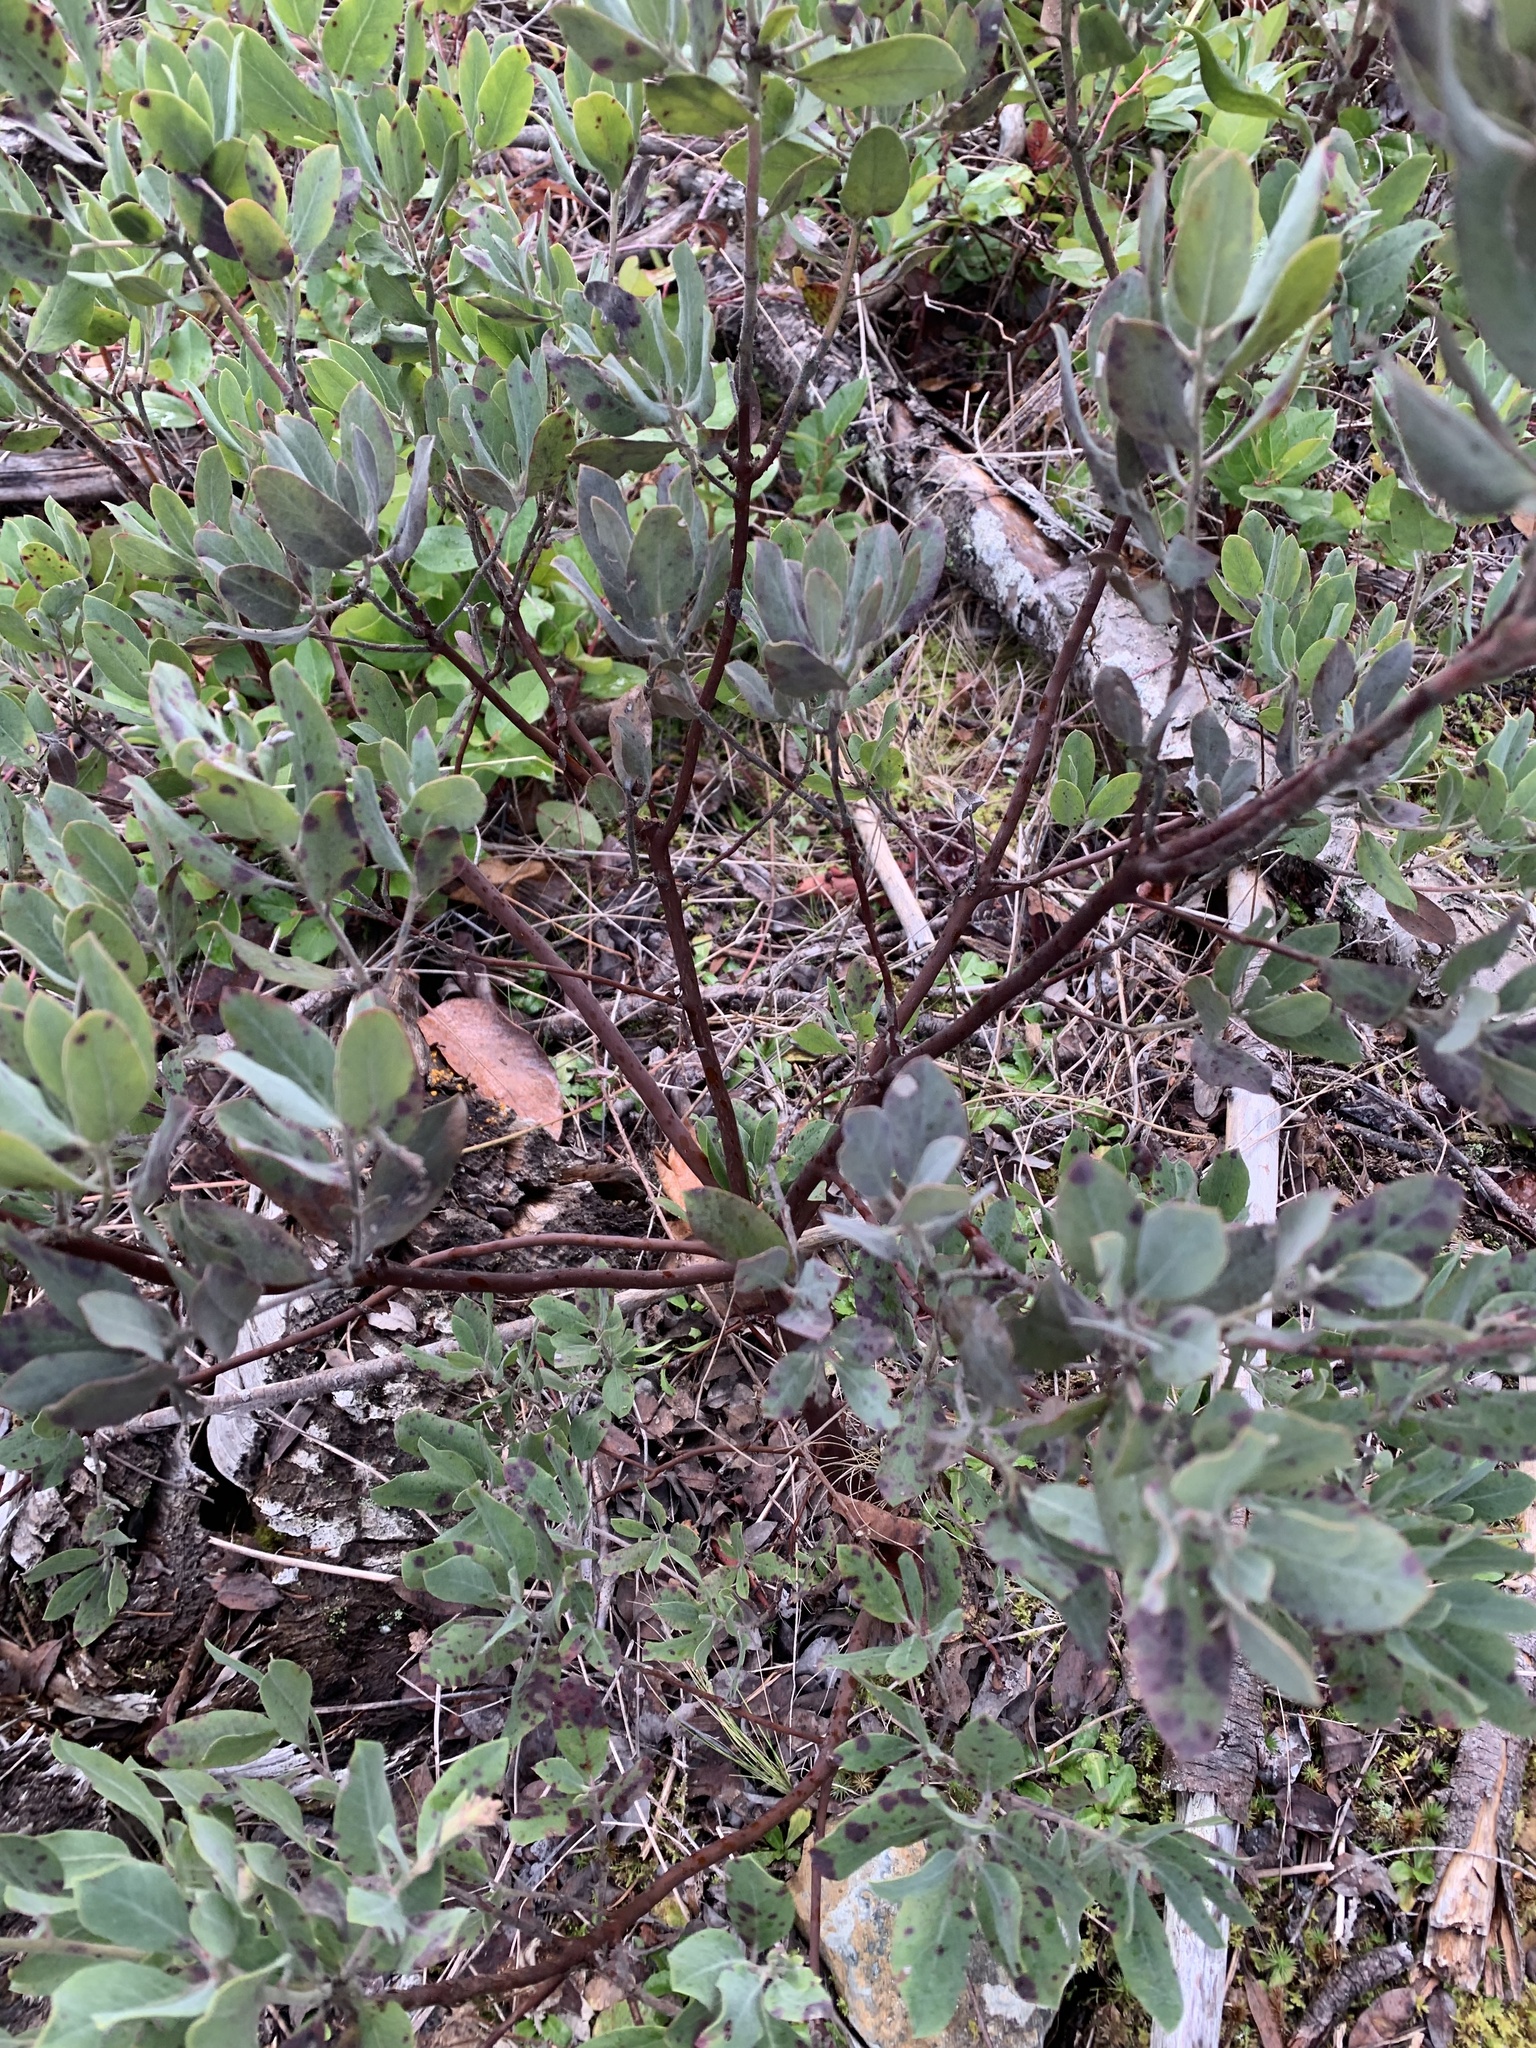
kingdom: Plantae
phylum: Tracheophyta
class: Magnoliopsida
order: Ericales
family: Ericaceae
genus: Arctostaphylos
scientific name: Arctostaphylos columbiana
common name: Bristly bearberry
